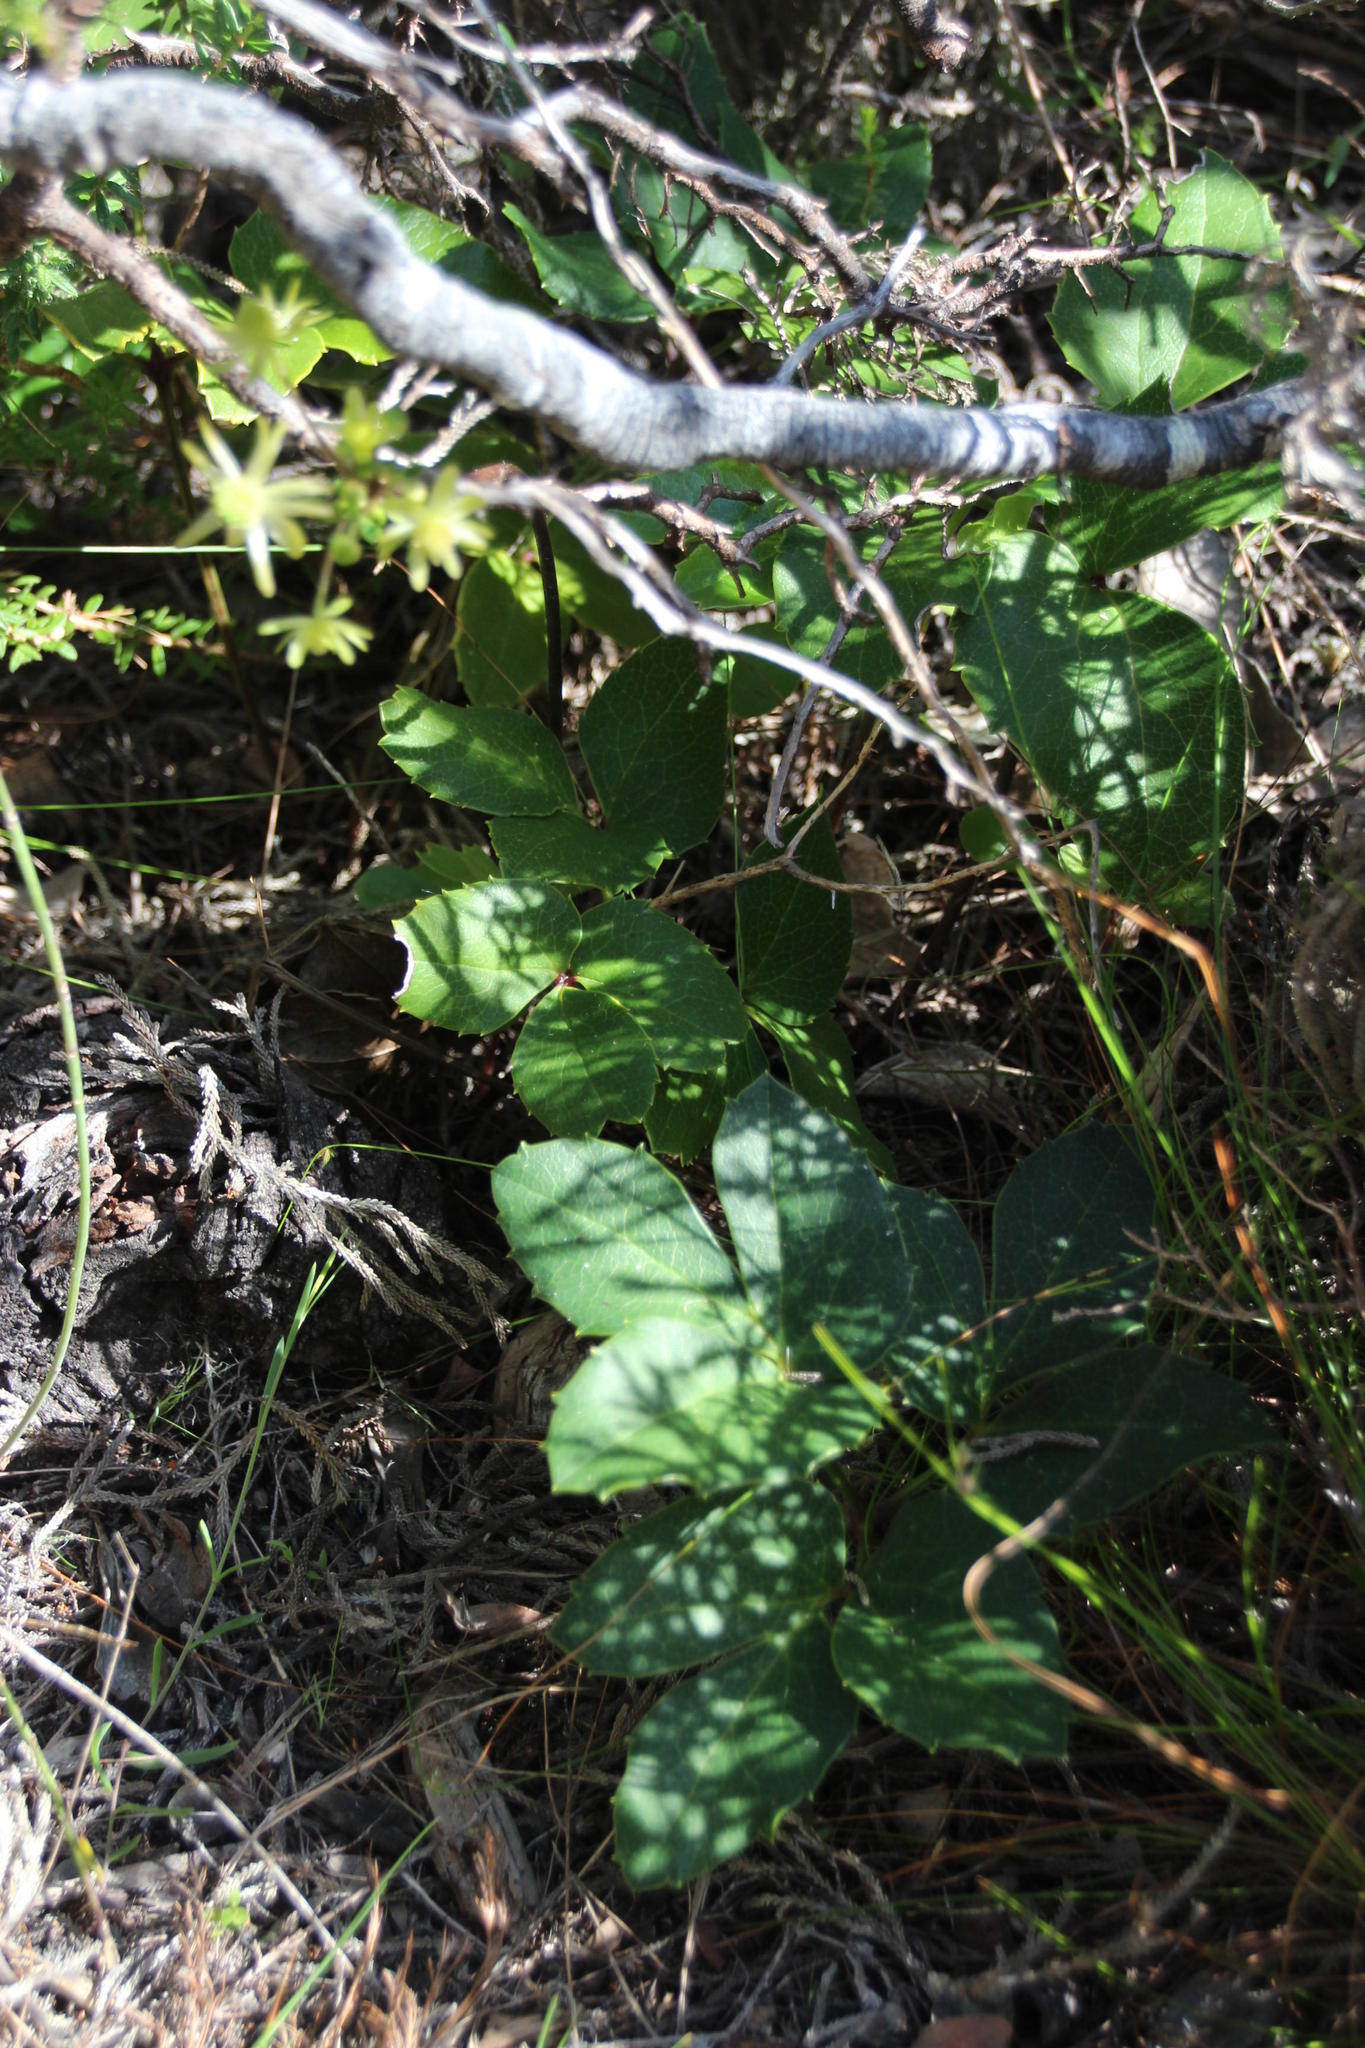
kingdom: Plantae
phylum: Tracheophyta
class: Magnoliopsida
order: Ranunculales
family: Ranunculaceae
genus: Knowltonia
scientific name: Knowltonia vesicatoria
